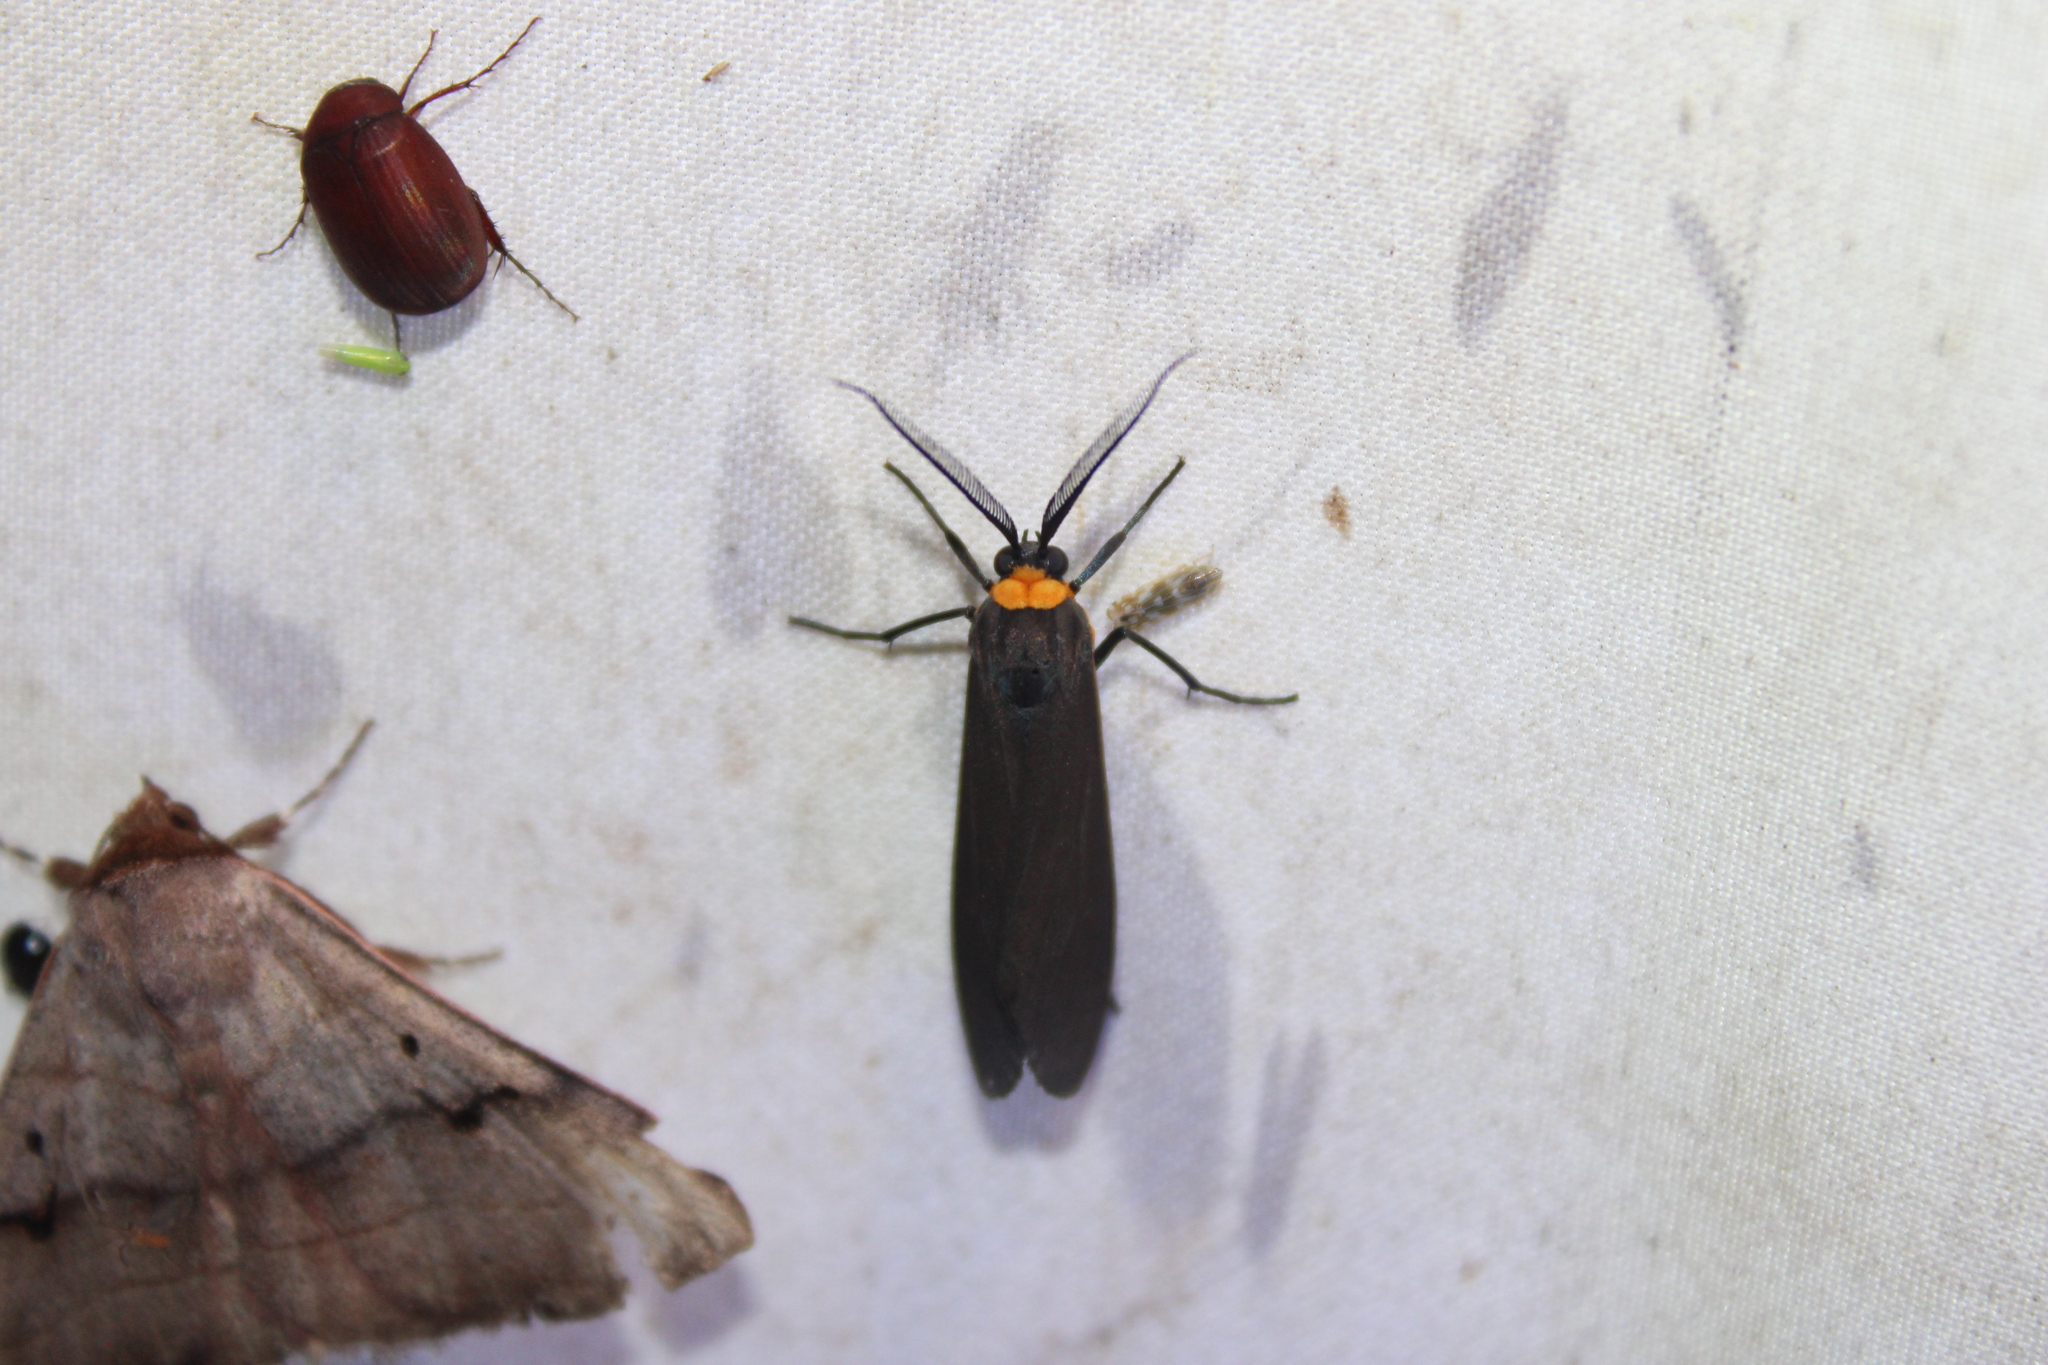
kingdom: Animalia
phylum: Arthropoda
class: Insecta
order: Lepidoptera
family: Erebidae
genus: Cisseps
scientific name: Cisseps fulvicollis
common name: Yellow-collared scape moth
